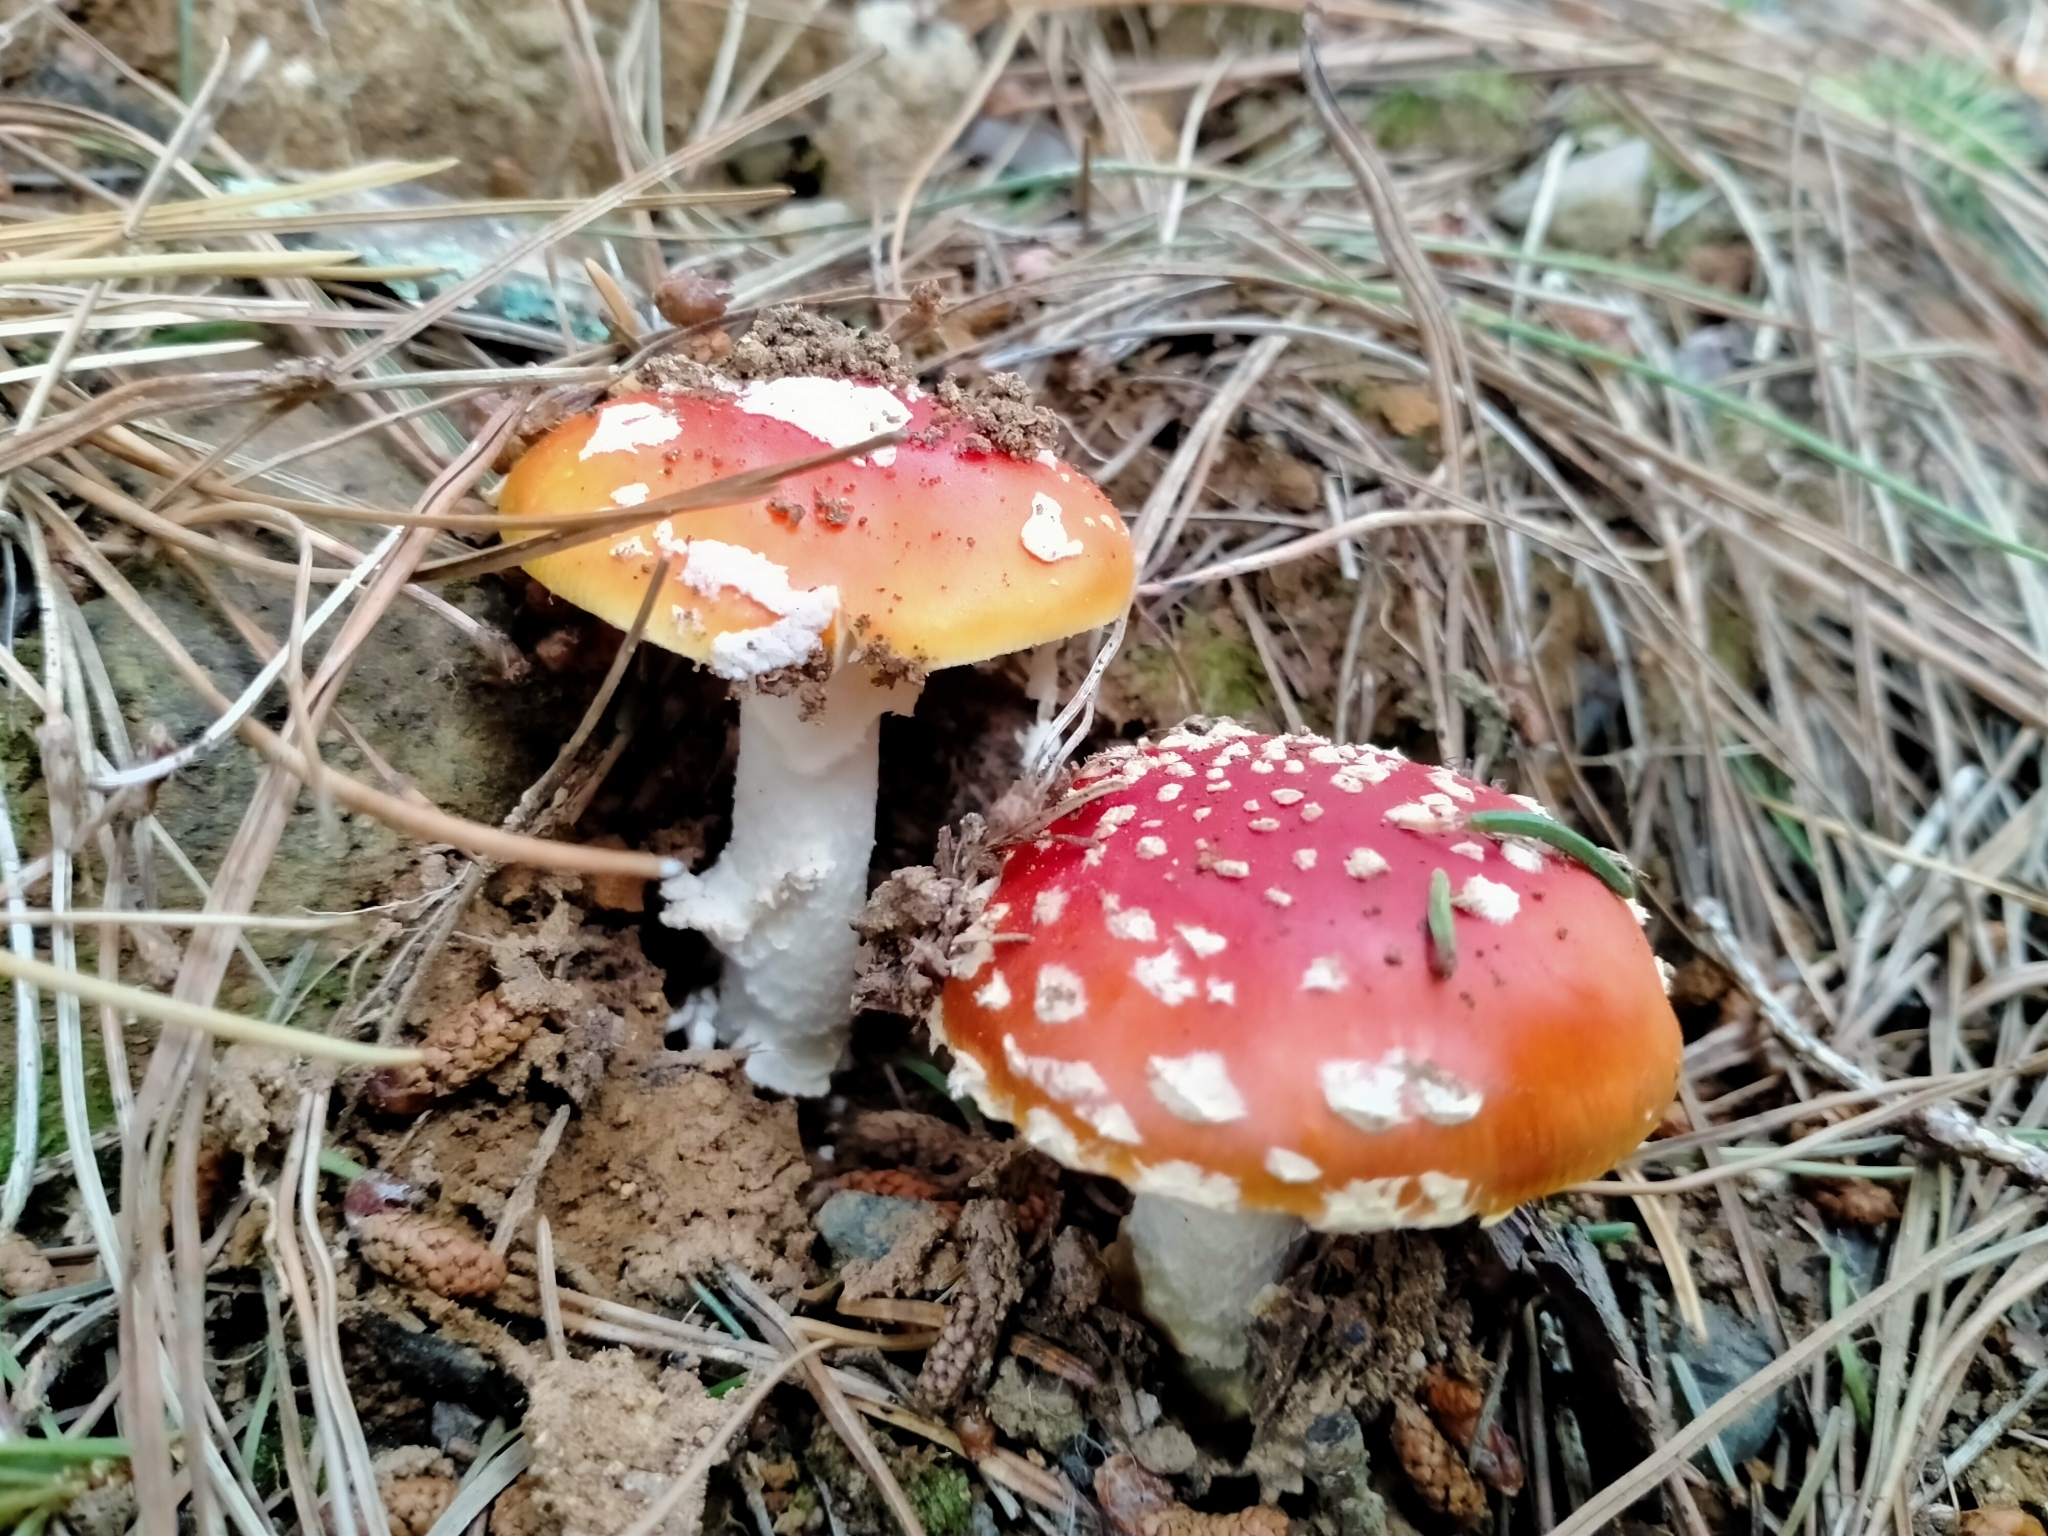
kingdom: Fungi
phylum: Basidiomycota
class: Agaricomycetes
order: Agaricales
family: Amanitaceae
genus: Amanita
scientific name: Amanita muscaria
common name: Fly agaric
